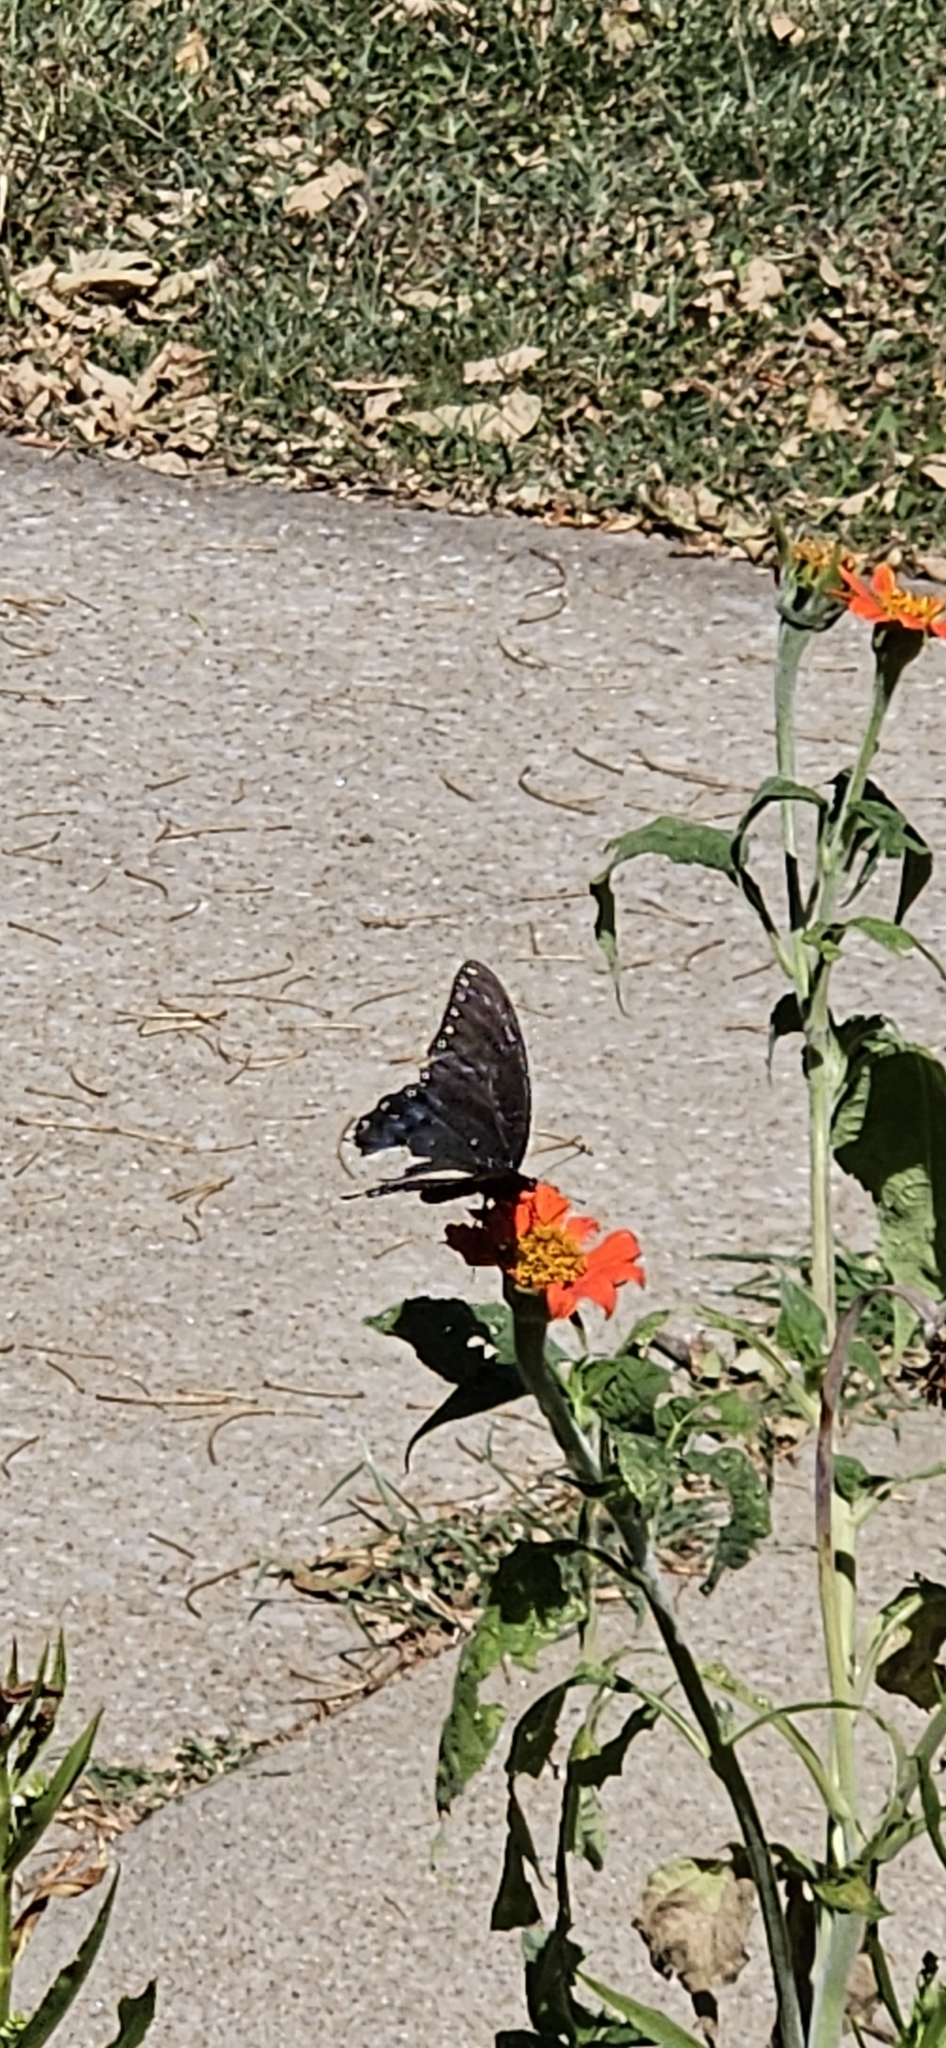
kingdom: Animalia
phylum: Arthropoda
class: Insecta
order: Lepidoptera
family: Papilionidae
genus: Papilio
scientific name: Papilio polyxenes
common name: Black swallowtail
